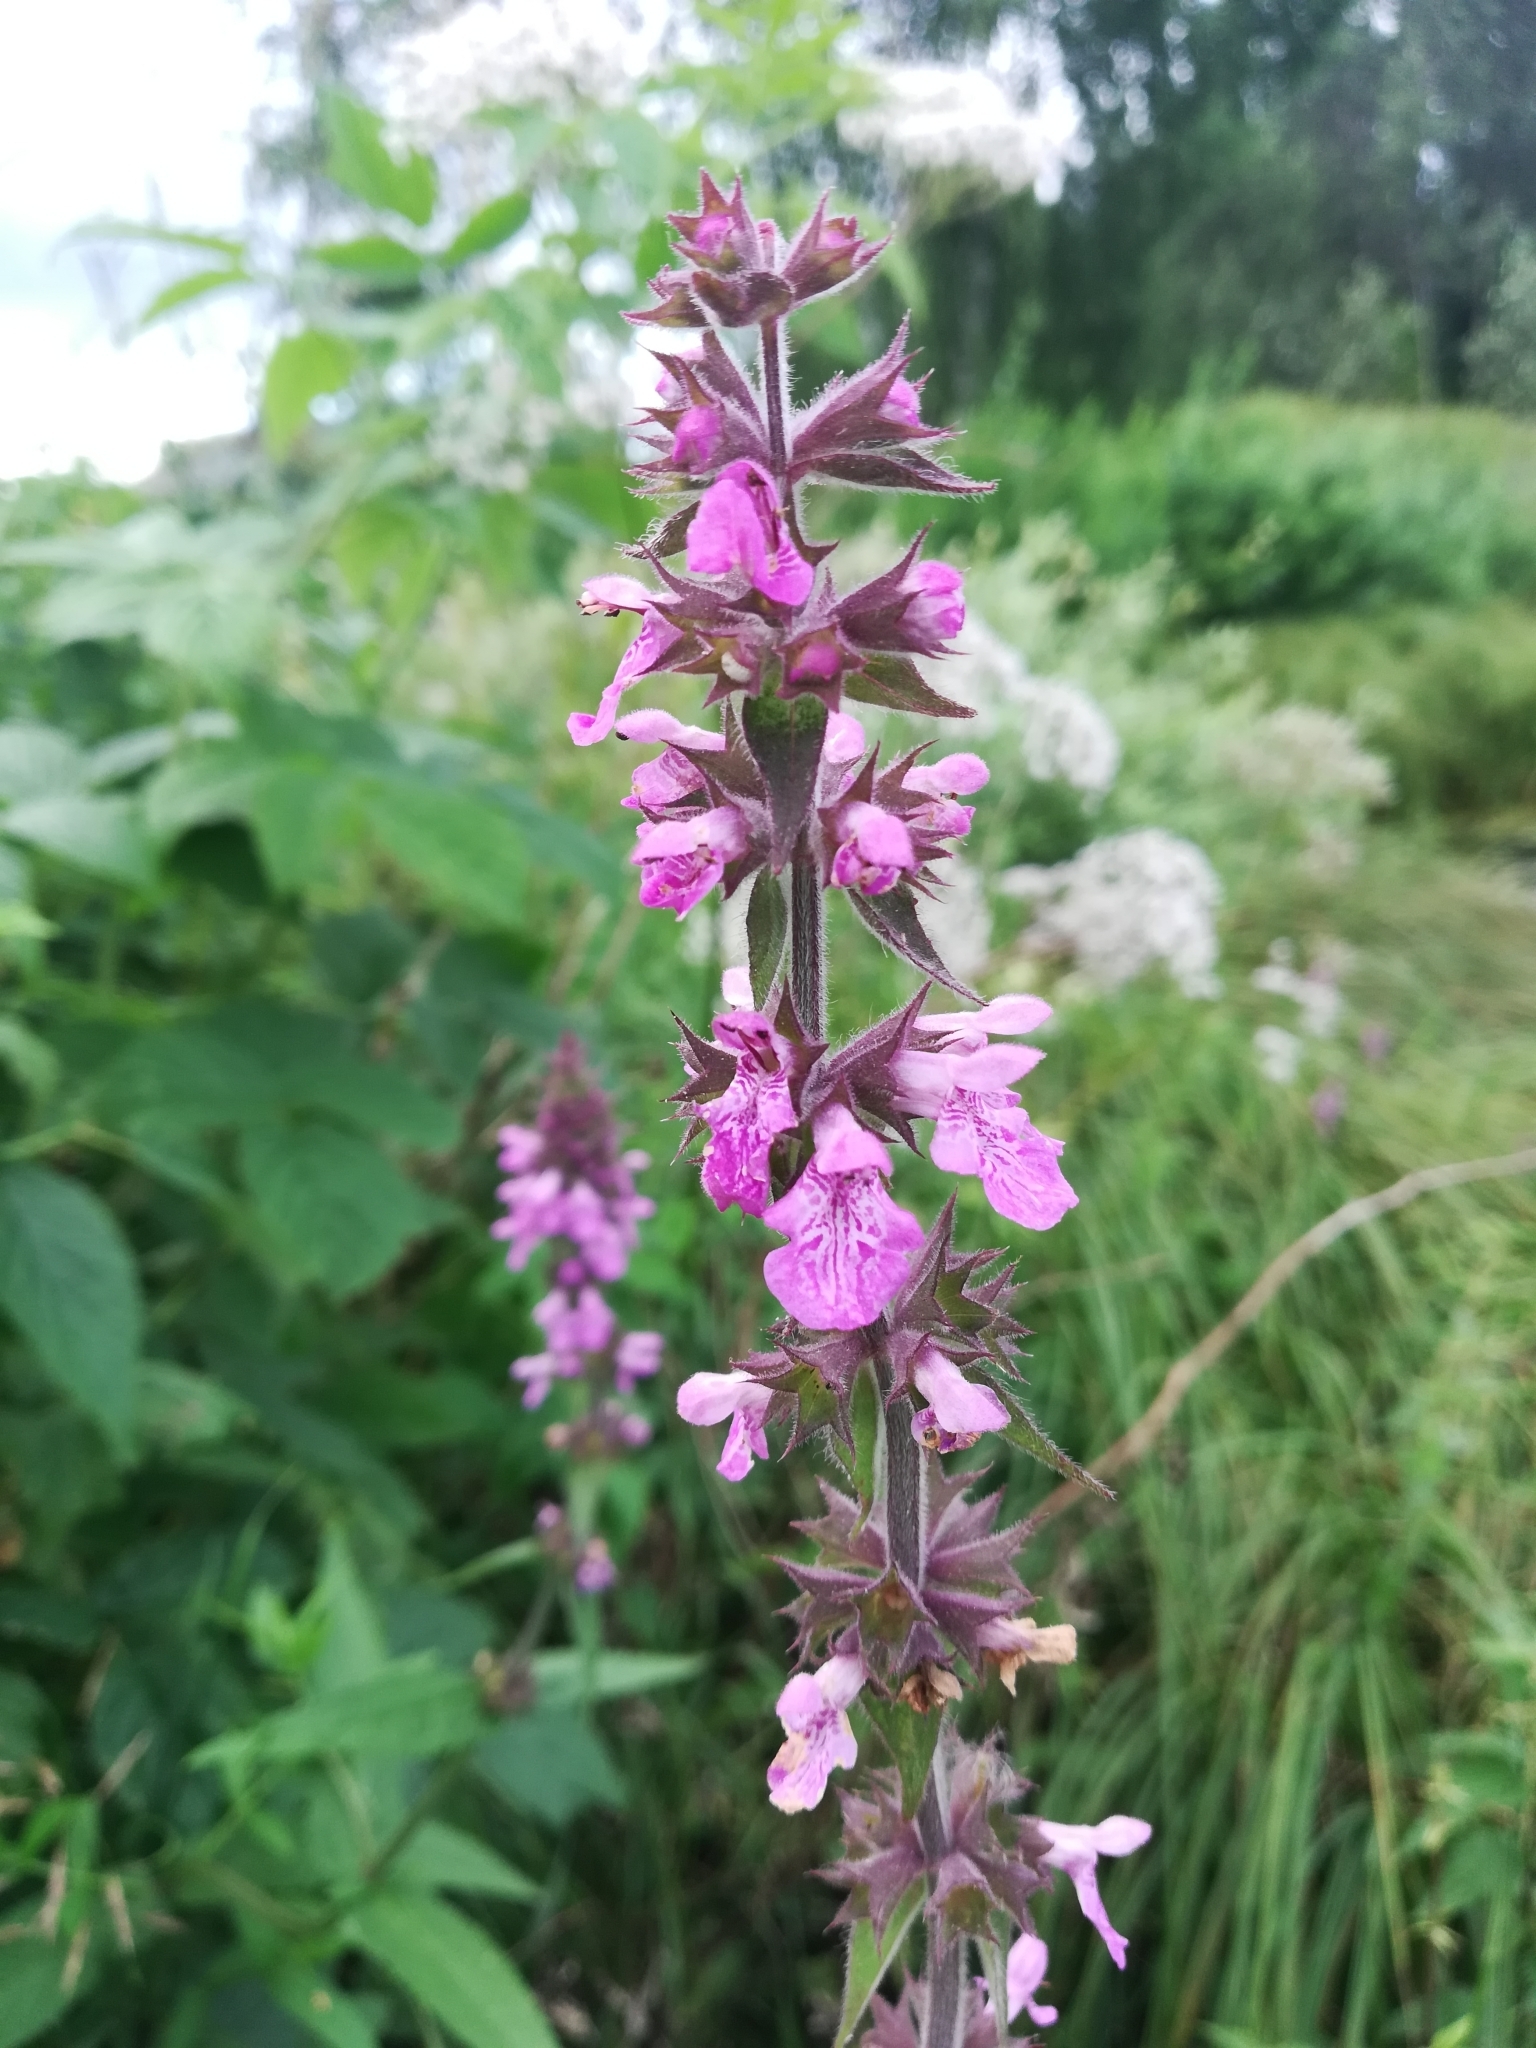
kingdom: Plantae
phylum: Tracheophyta
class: Magnoliopsida
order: Lamiales
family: Lamiaceae
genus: Stachys
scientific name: Stachys palustris
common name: Marsh woundwort
